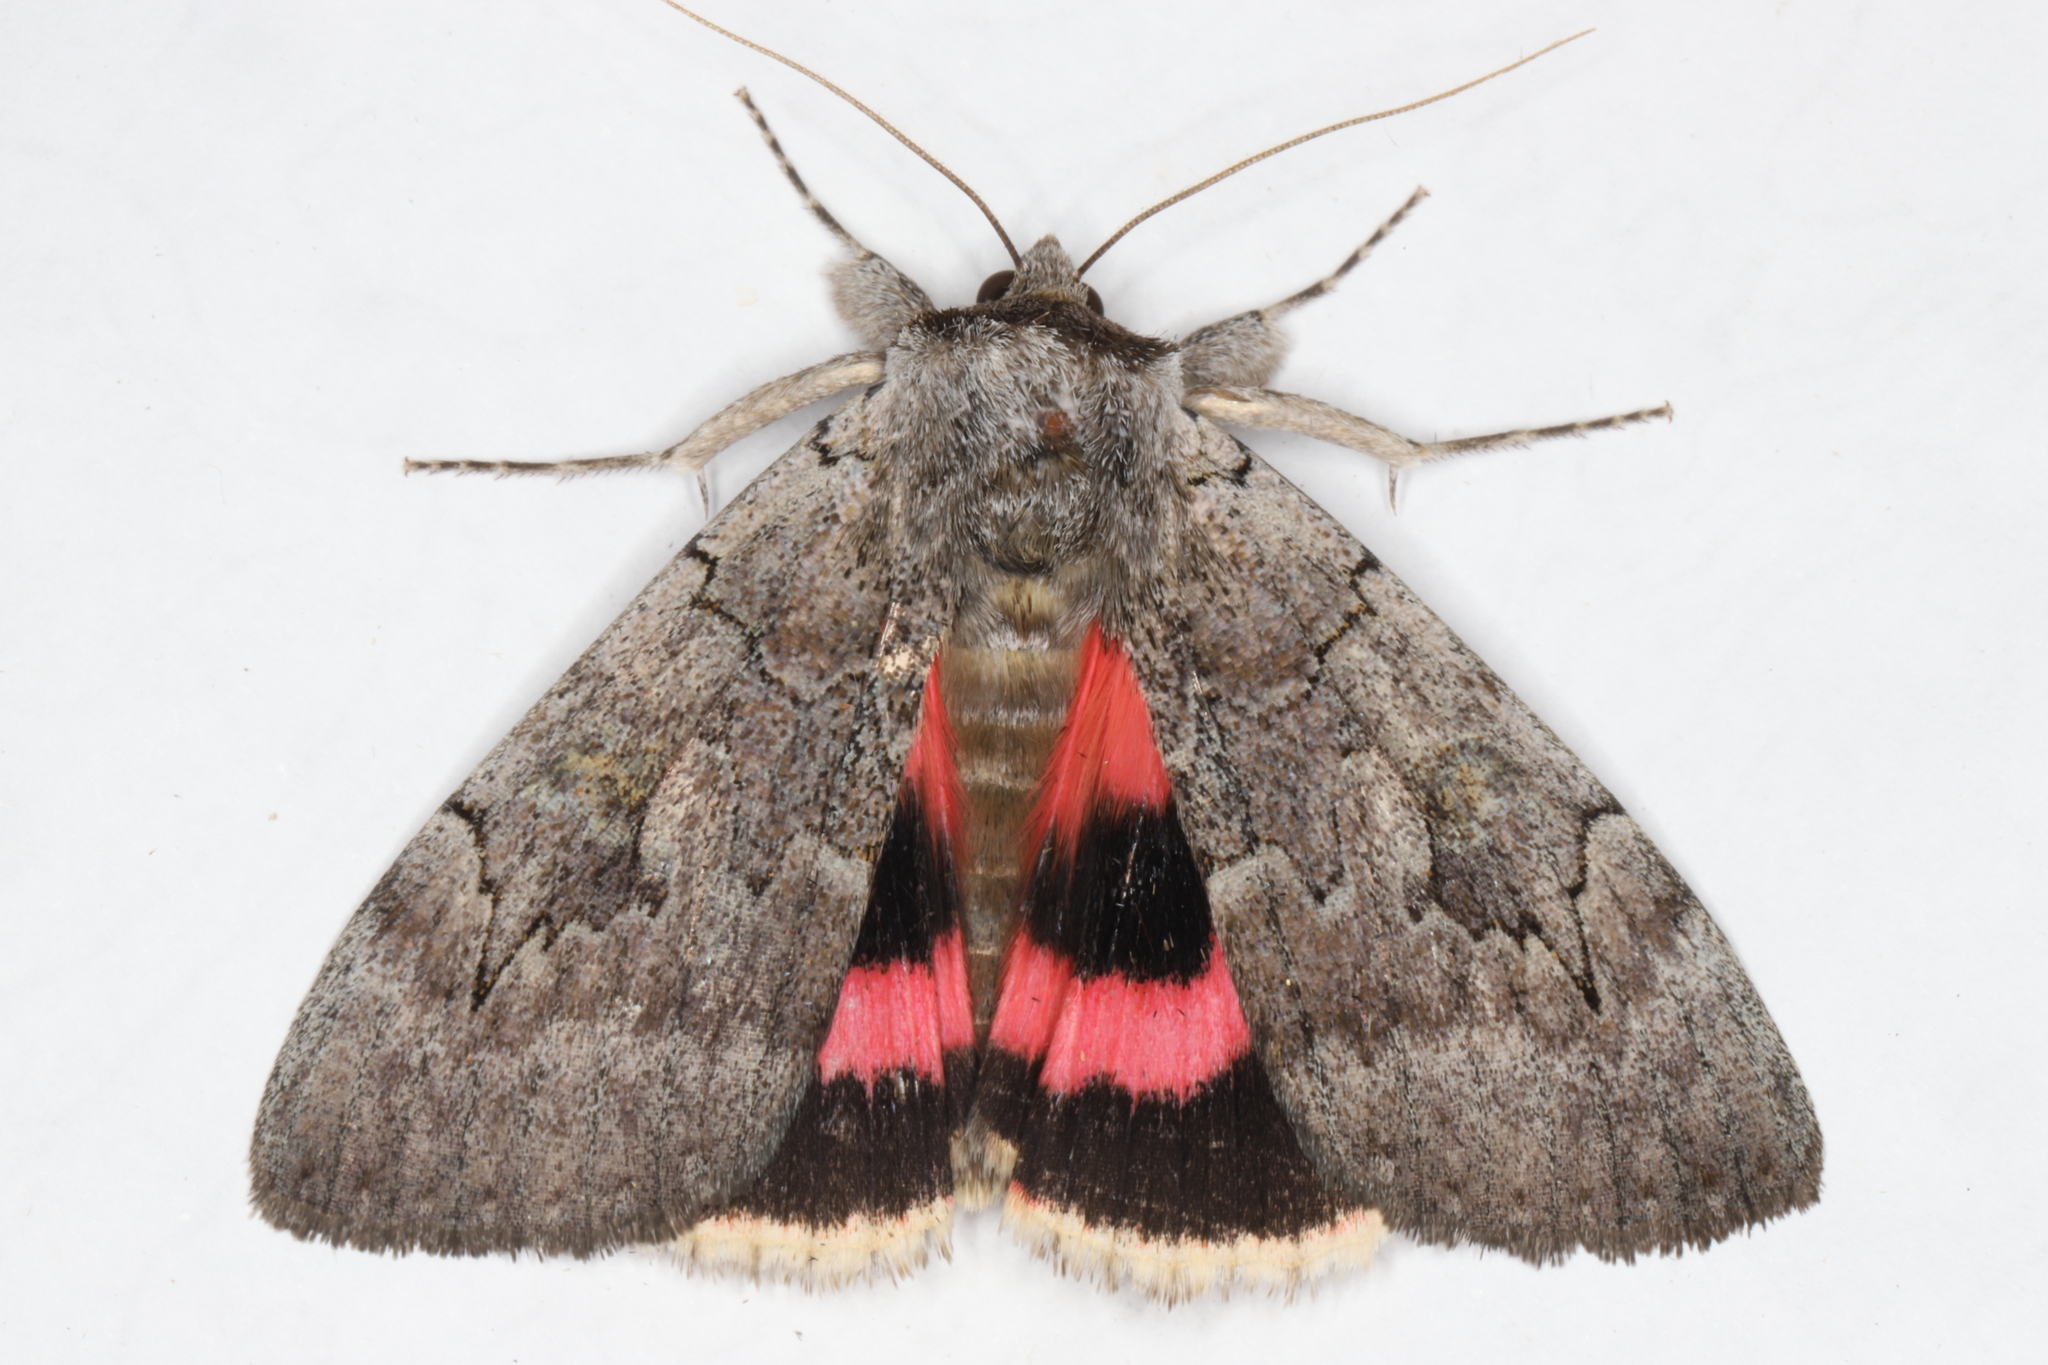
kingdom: Animalia
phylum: Arthropoda
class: Insecta
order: Lepidoptera
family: Erebidae
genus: Catocala
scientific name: Catocala concumbens
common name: Pink underwing
